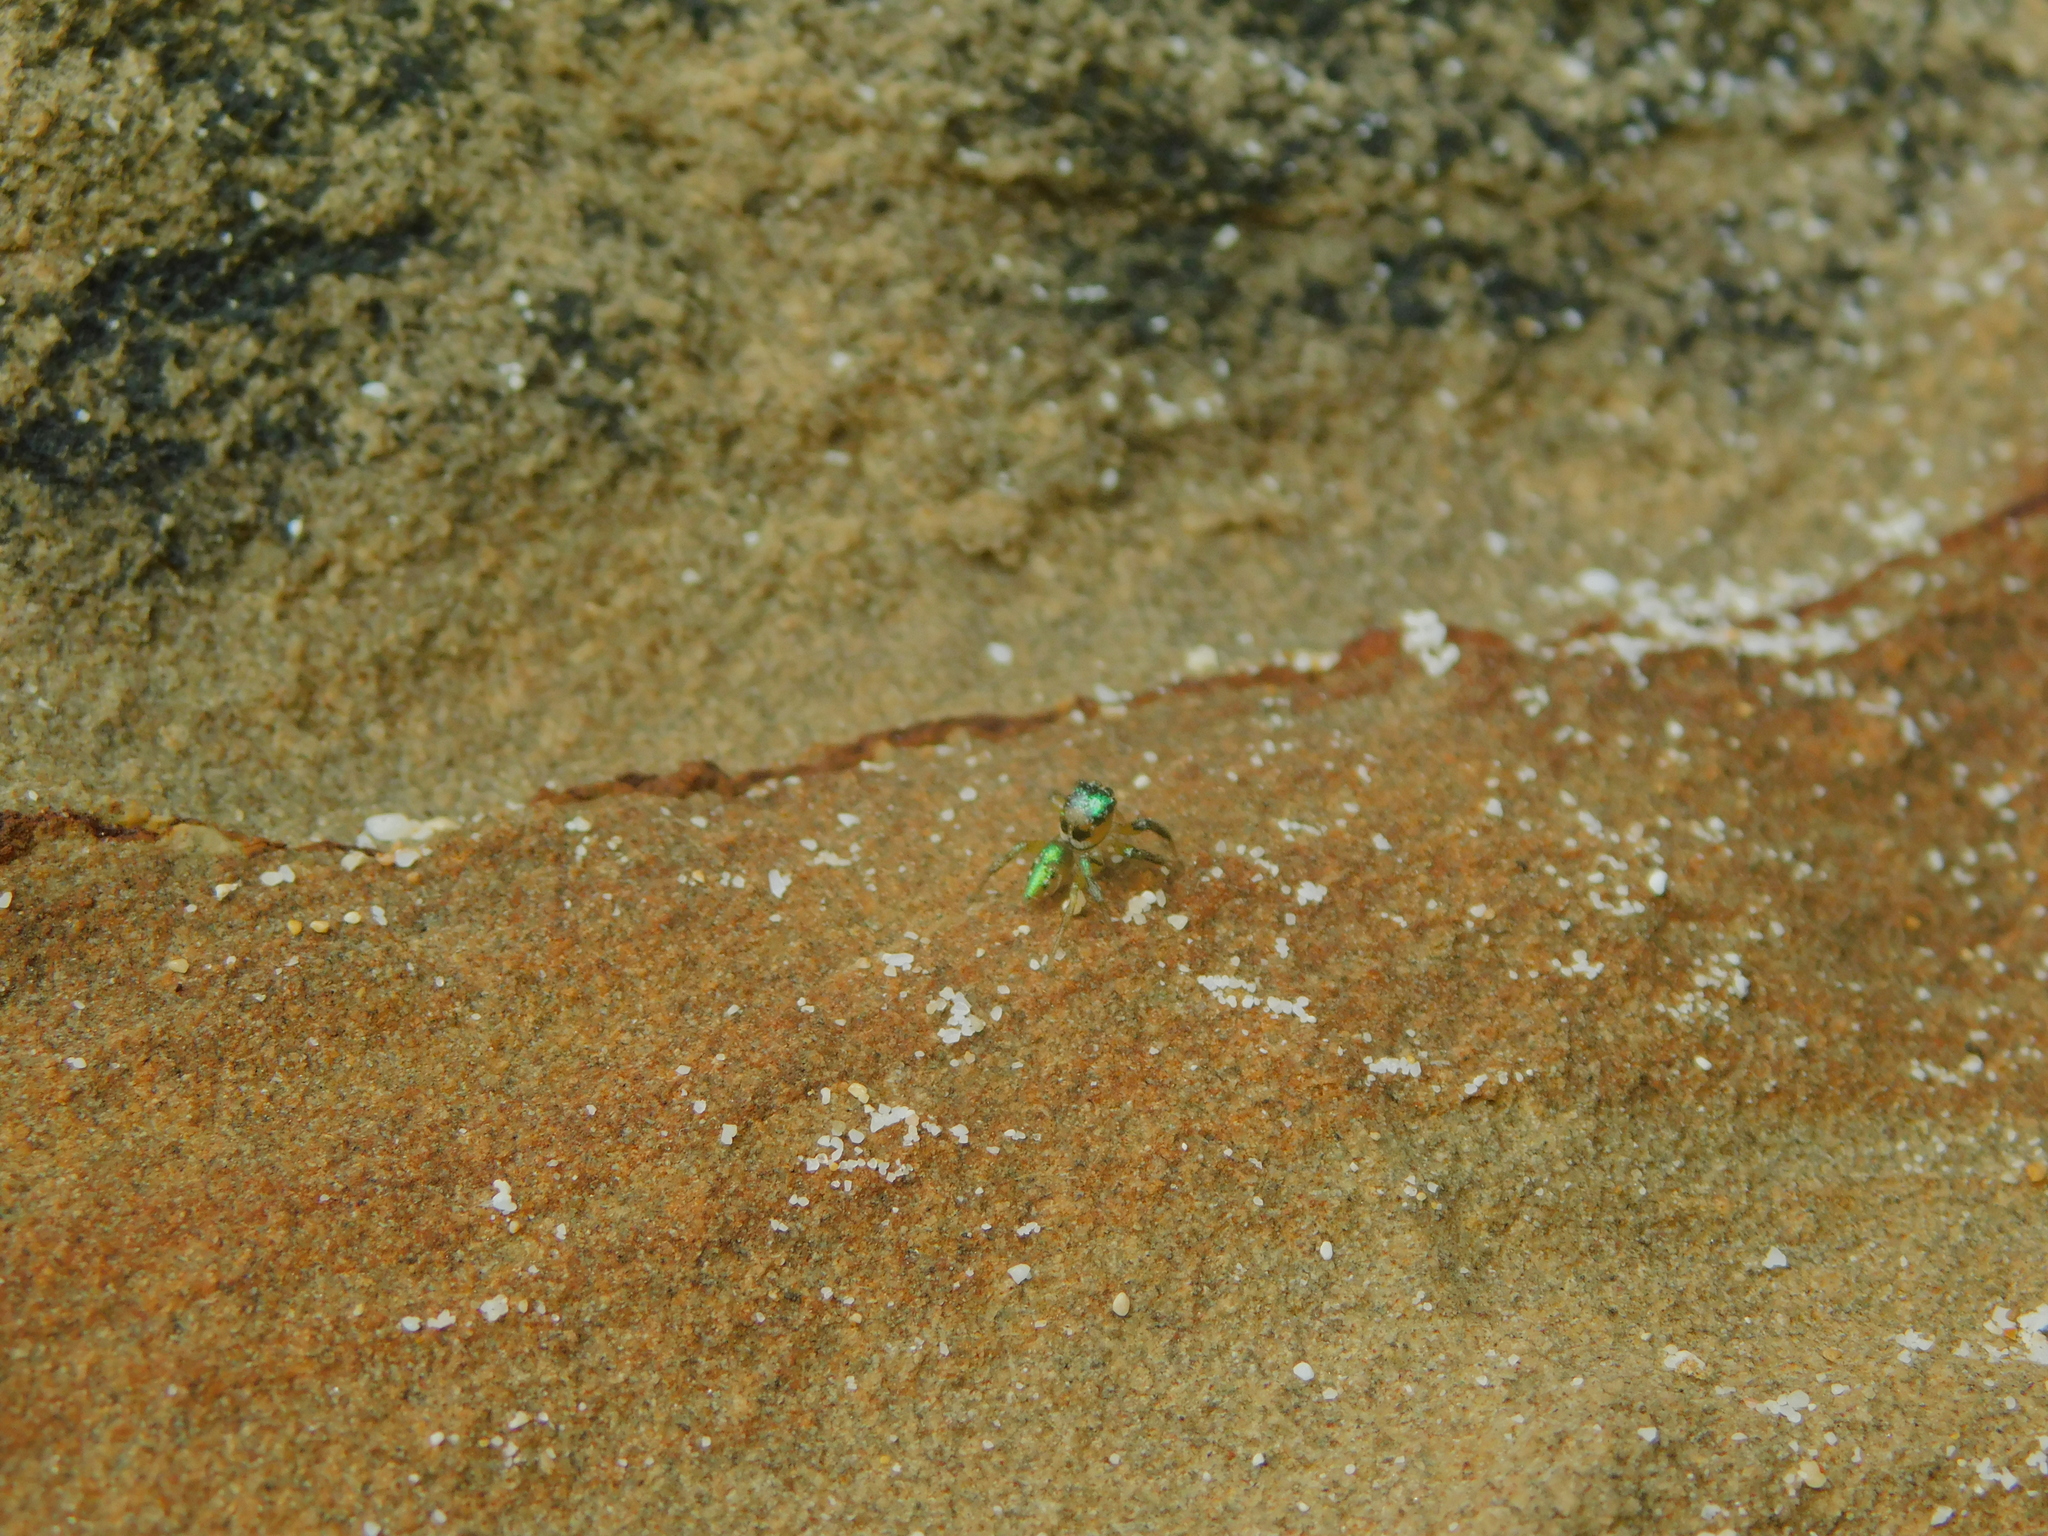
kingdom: Animalia
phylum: Arthropoda
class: Arachnida
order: Araneae
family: Salticidae
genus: Cytaea
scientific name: Cytaea dispalans
